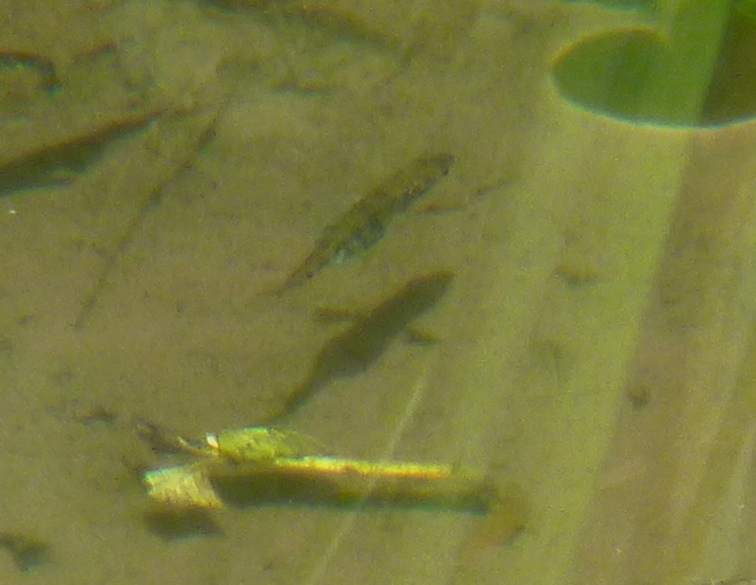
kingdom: Animalia
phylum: Chordata
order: Gasterosteiformes
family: Gasterosteidae
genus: Gasterosteus
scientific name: Gasterosteus aculeatus
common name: Three-spined stickleback
